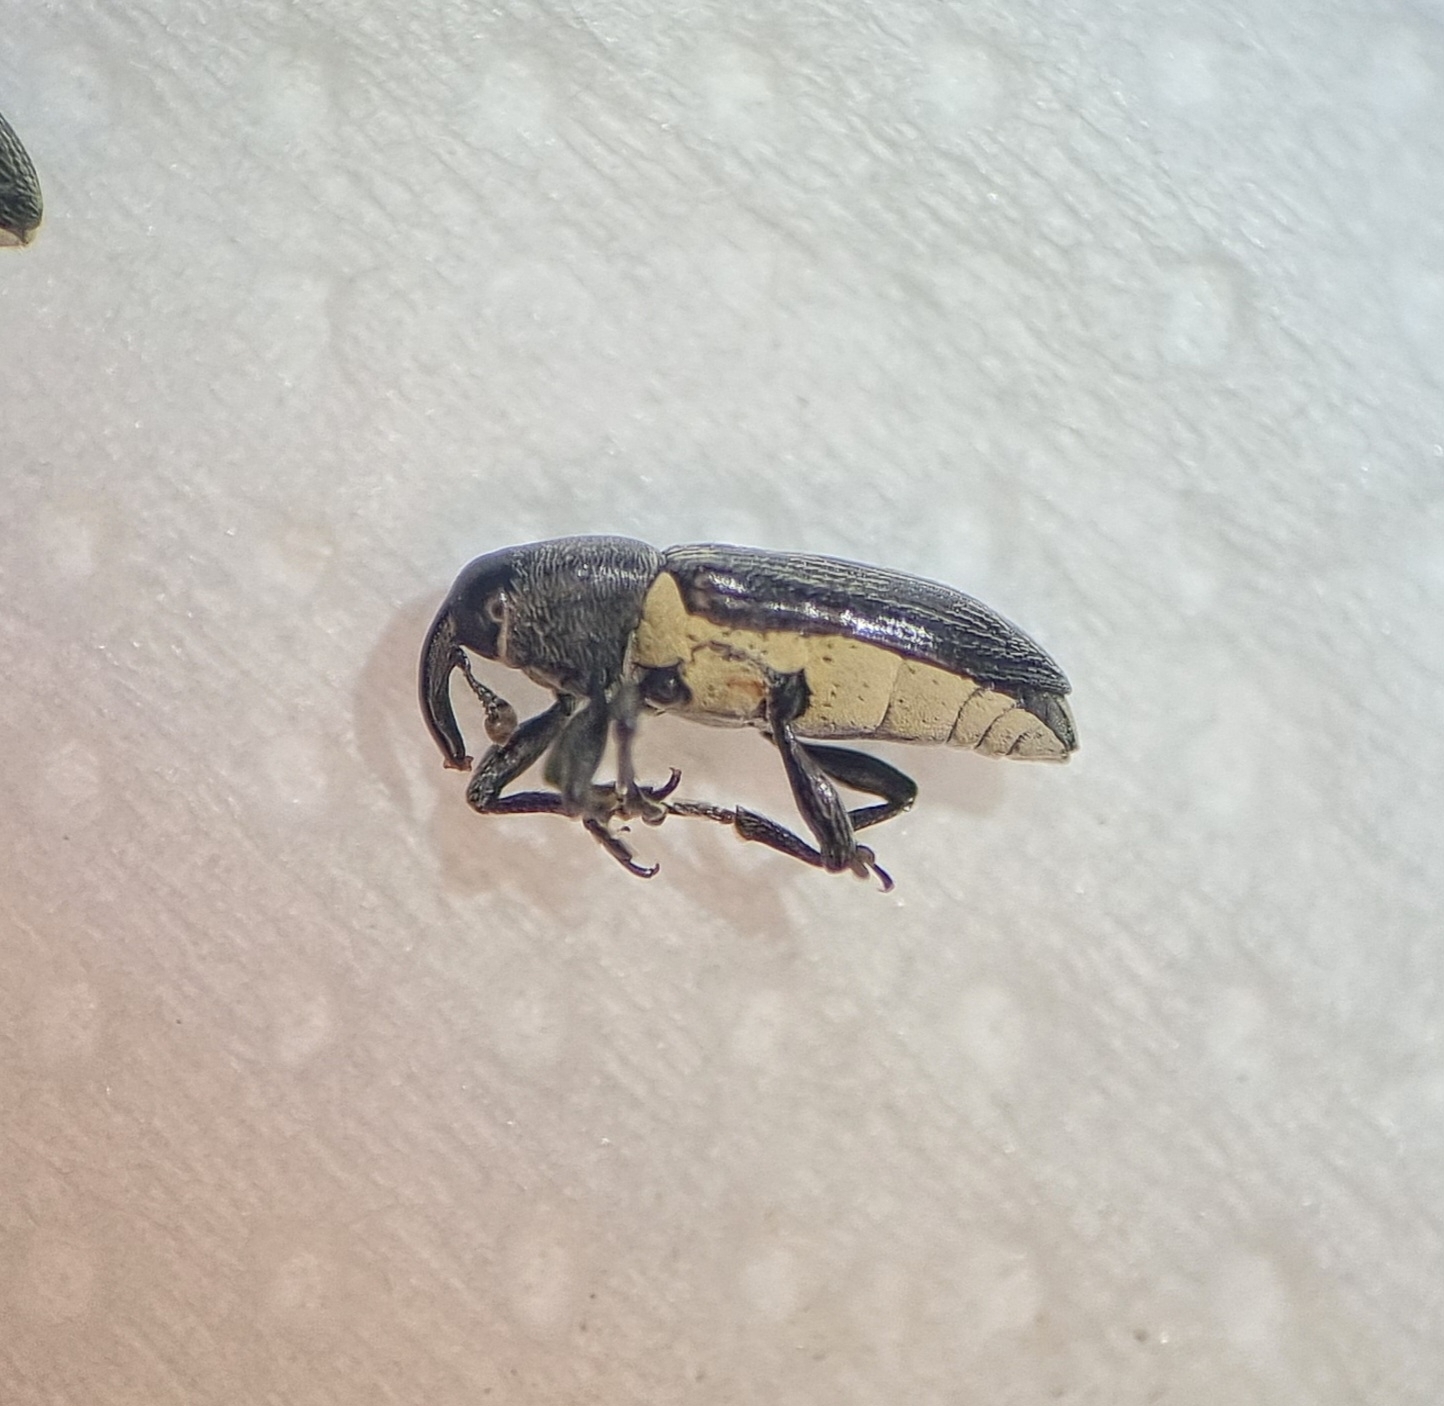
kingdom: Animalia
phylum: Arthropoda
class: Insecta
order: Coleoptera
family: Curculionidae
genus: Limnobaris
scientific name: Limnobaris dolorosa
